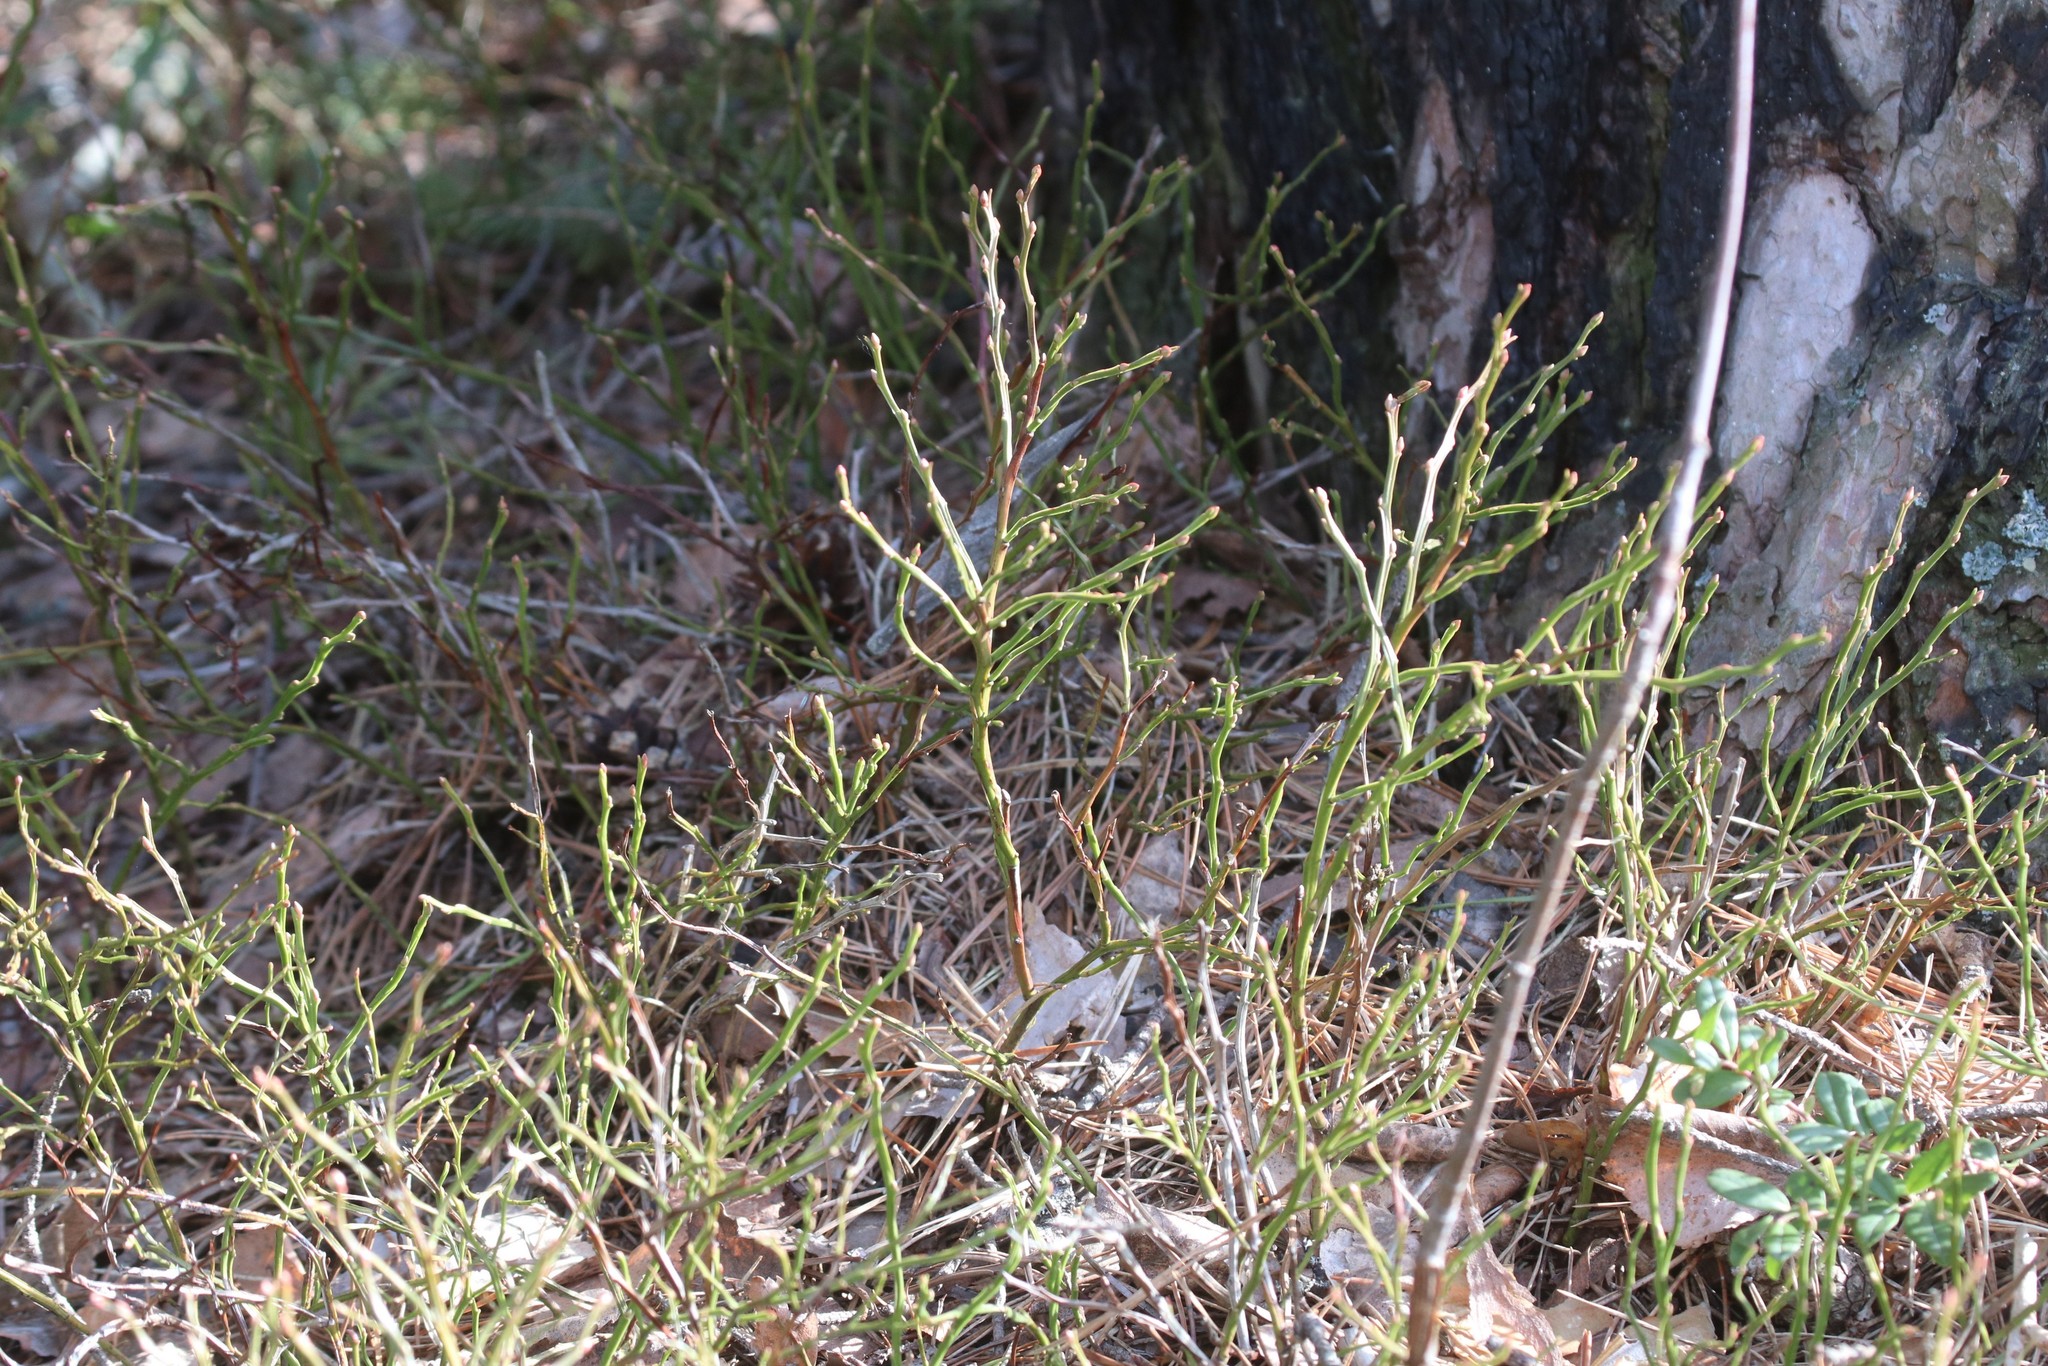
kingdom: Plantae
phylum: Tracheophyta
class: Magnoliopsida
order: Ericales
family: Ericaceae
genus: Vaccinium
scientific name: Vaccinium myrtillus
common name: Bilberry
